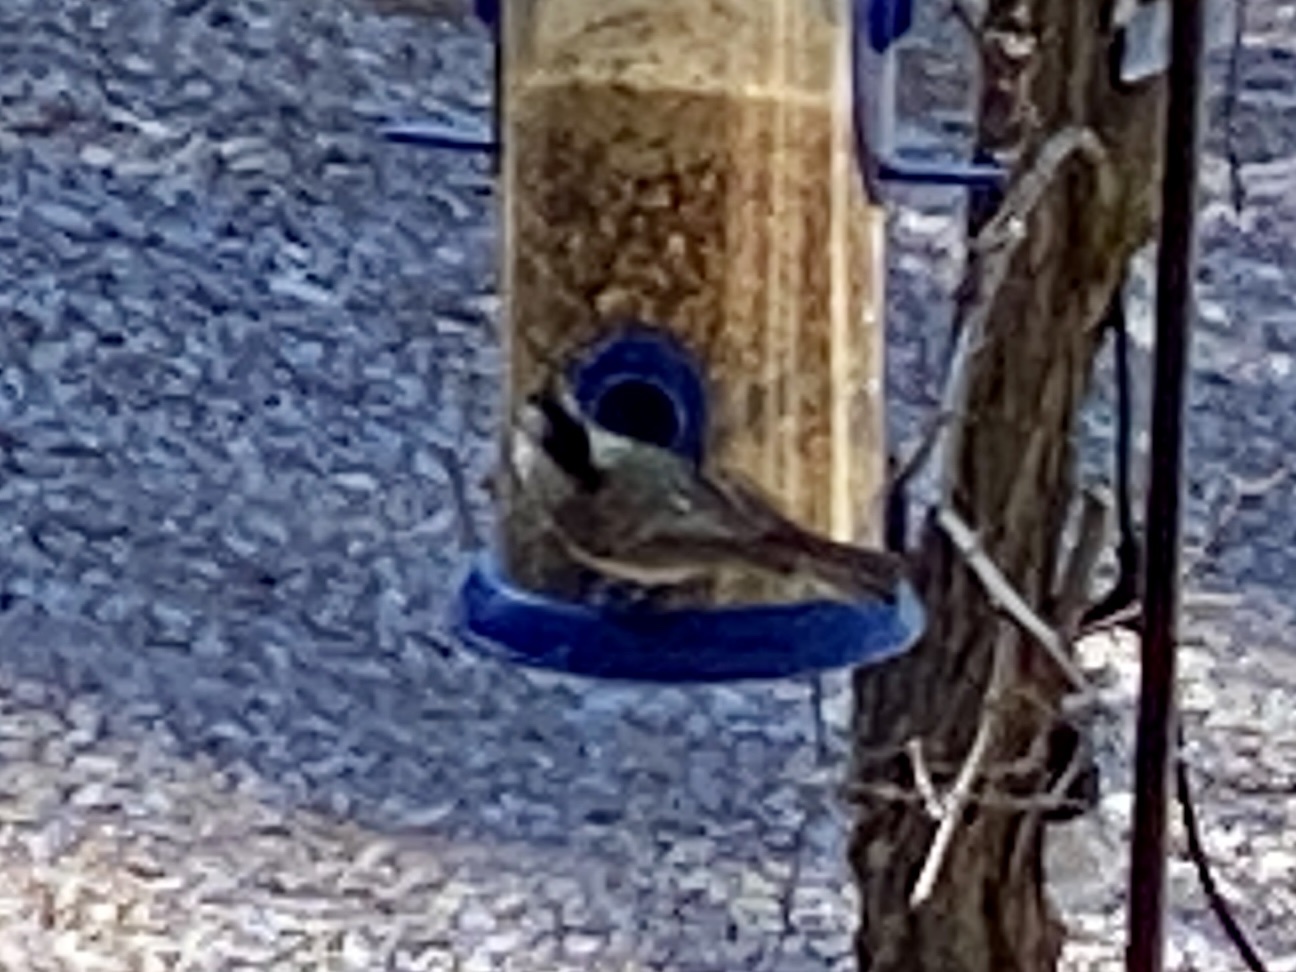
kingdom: Animalia
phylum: Chordata
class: Aves
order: Passeriformes
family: Paridae
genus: Poecile
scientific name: Poecile gambeli
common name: Mountain chickadee
